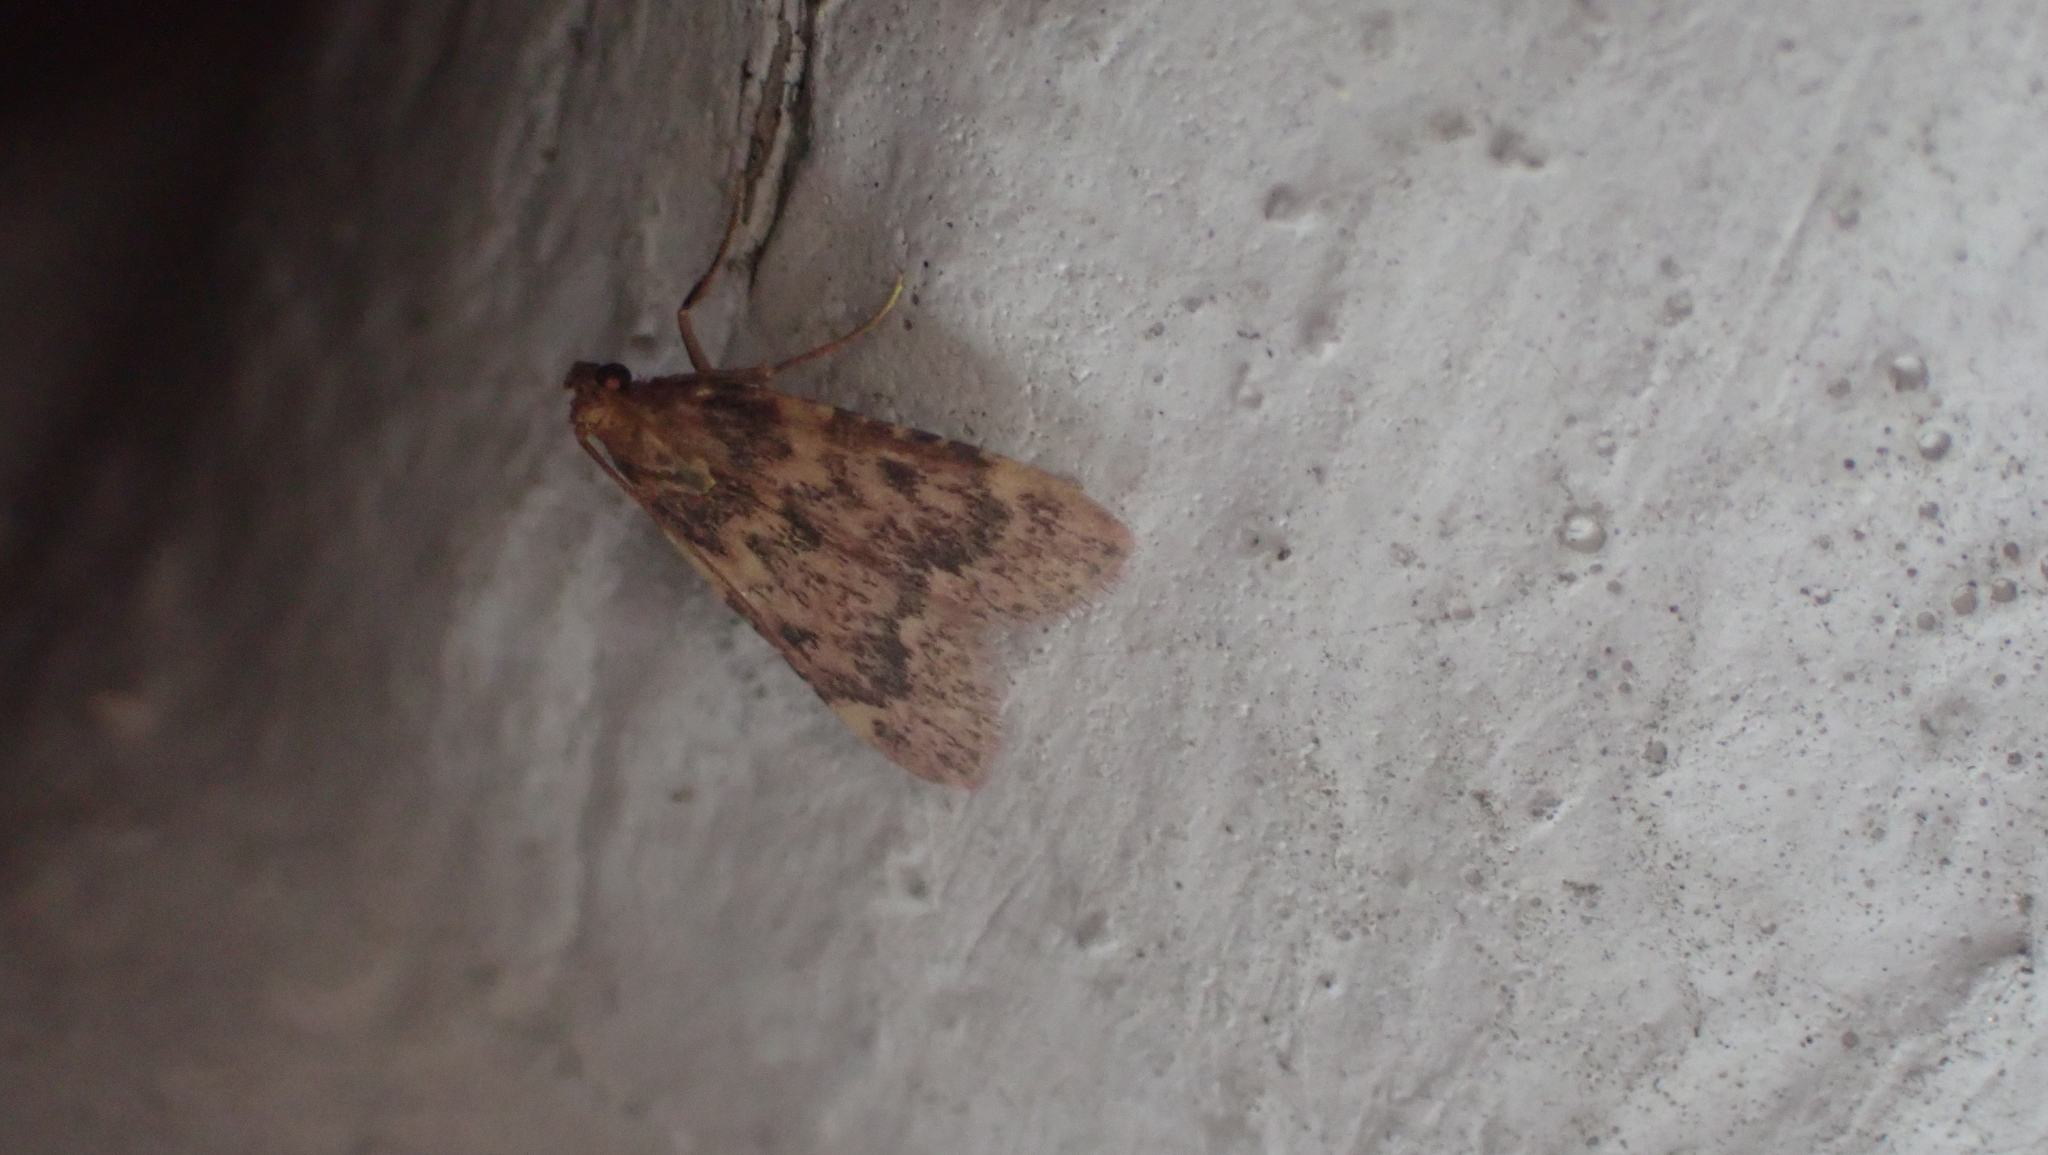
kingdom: Animalia
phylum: Arthropoda
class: Insecta
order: Lepidoptera
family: Pyralidae
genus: Aglossa
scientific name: Aglossa disciferalis
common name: Pink-masked pyralid moth
